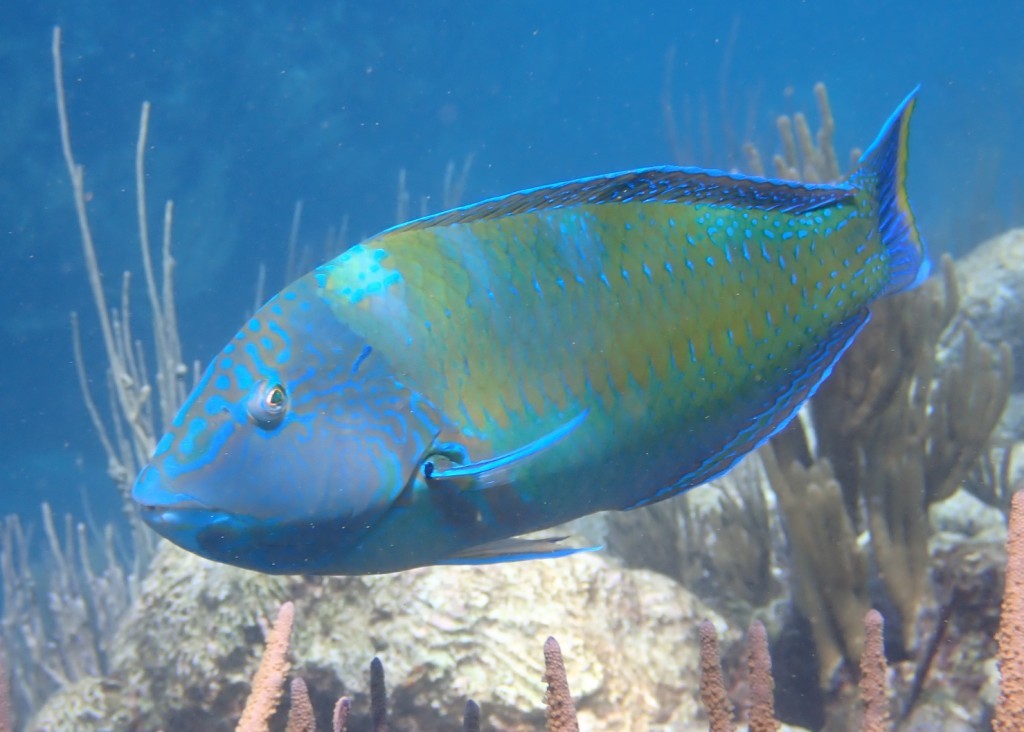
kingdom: Animalia
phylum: Chordata
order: Perciformes
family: Labridae
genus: Halichoeres
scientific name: Halichoeres radiatus
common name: Puddingwife
